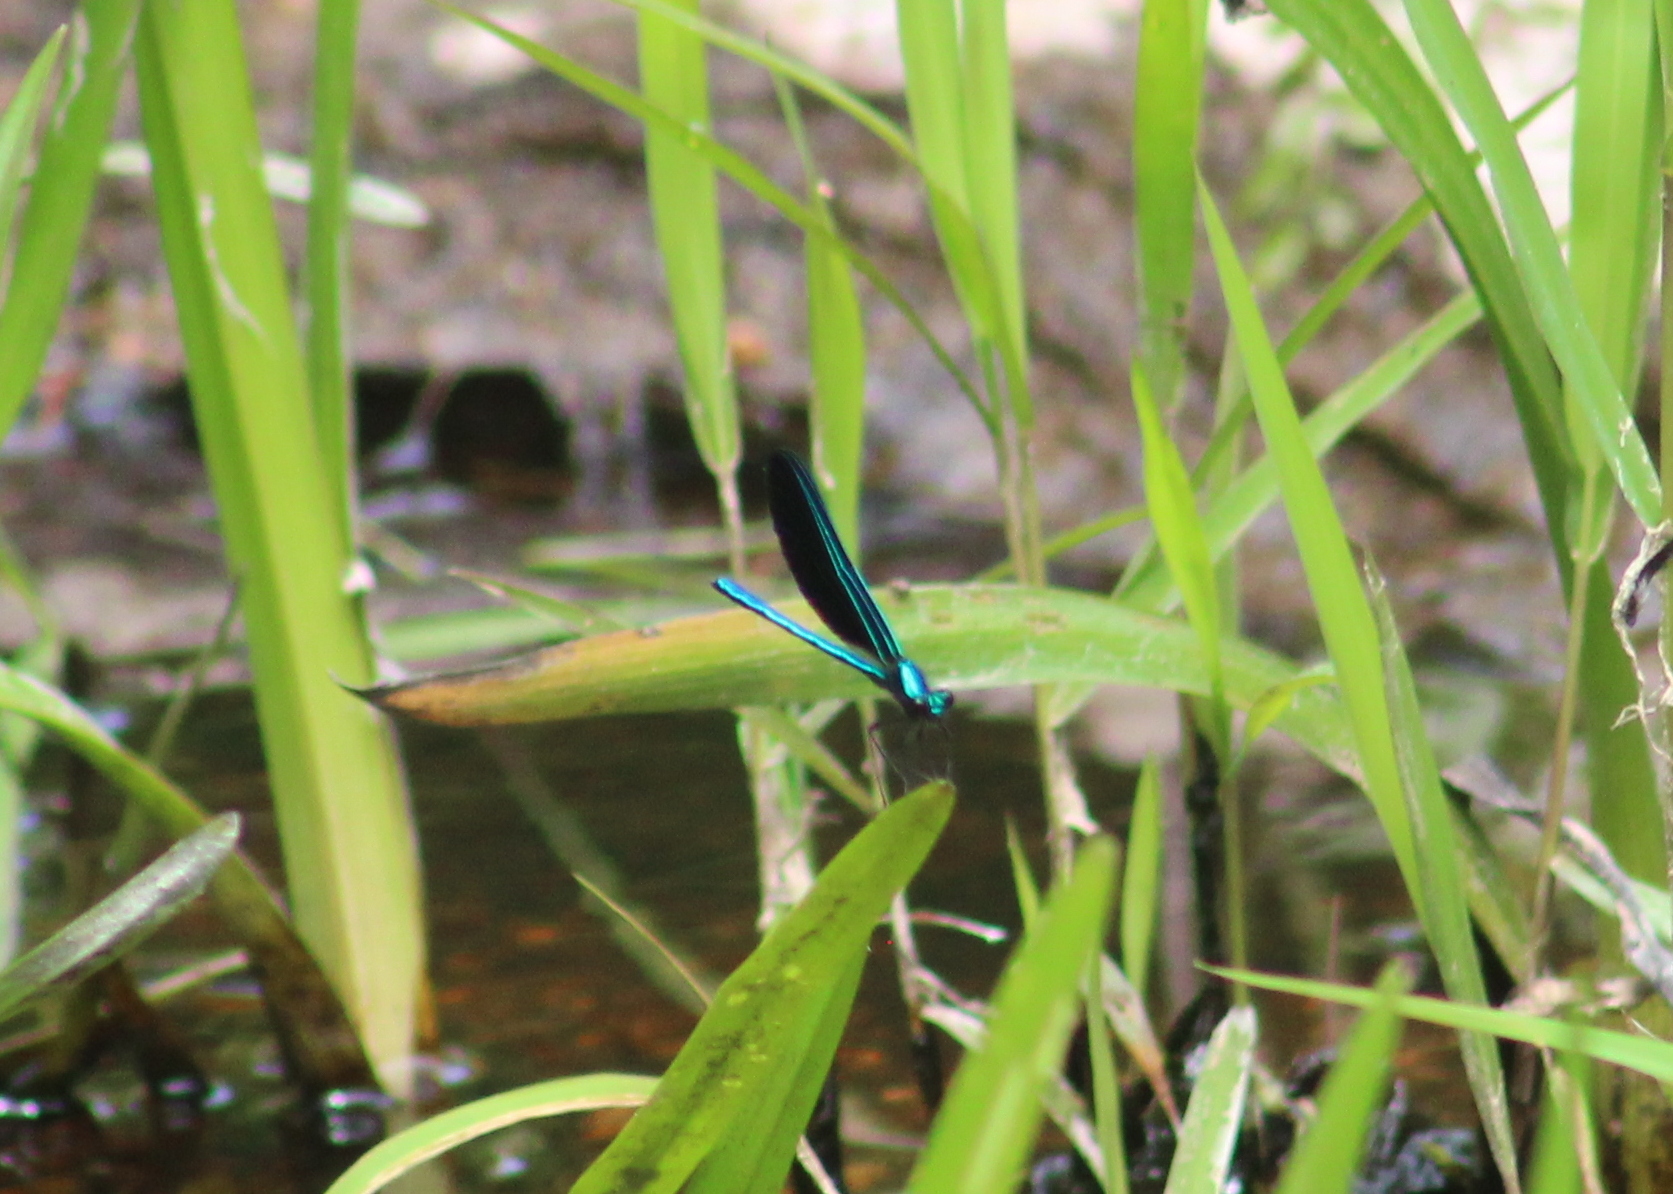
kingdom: Animalia
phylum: Arthropoda
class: Insecta
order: Odonata
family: Calopterygidae
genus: Calopteryx
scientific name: Calopteryx maculata
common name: Ebony jewelwing
